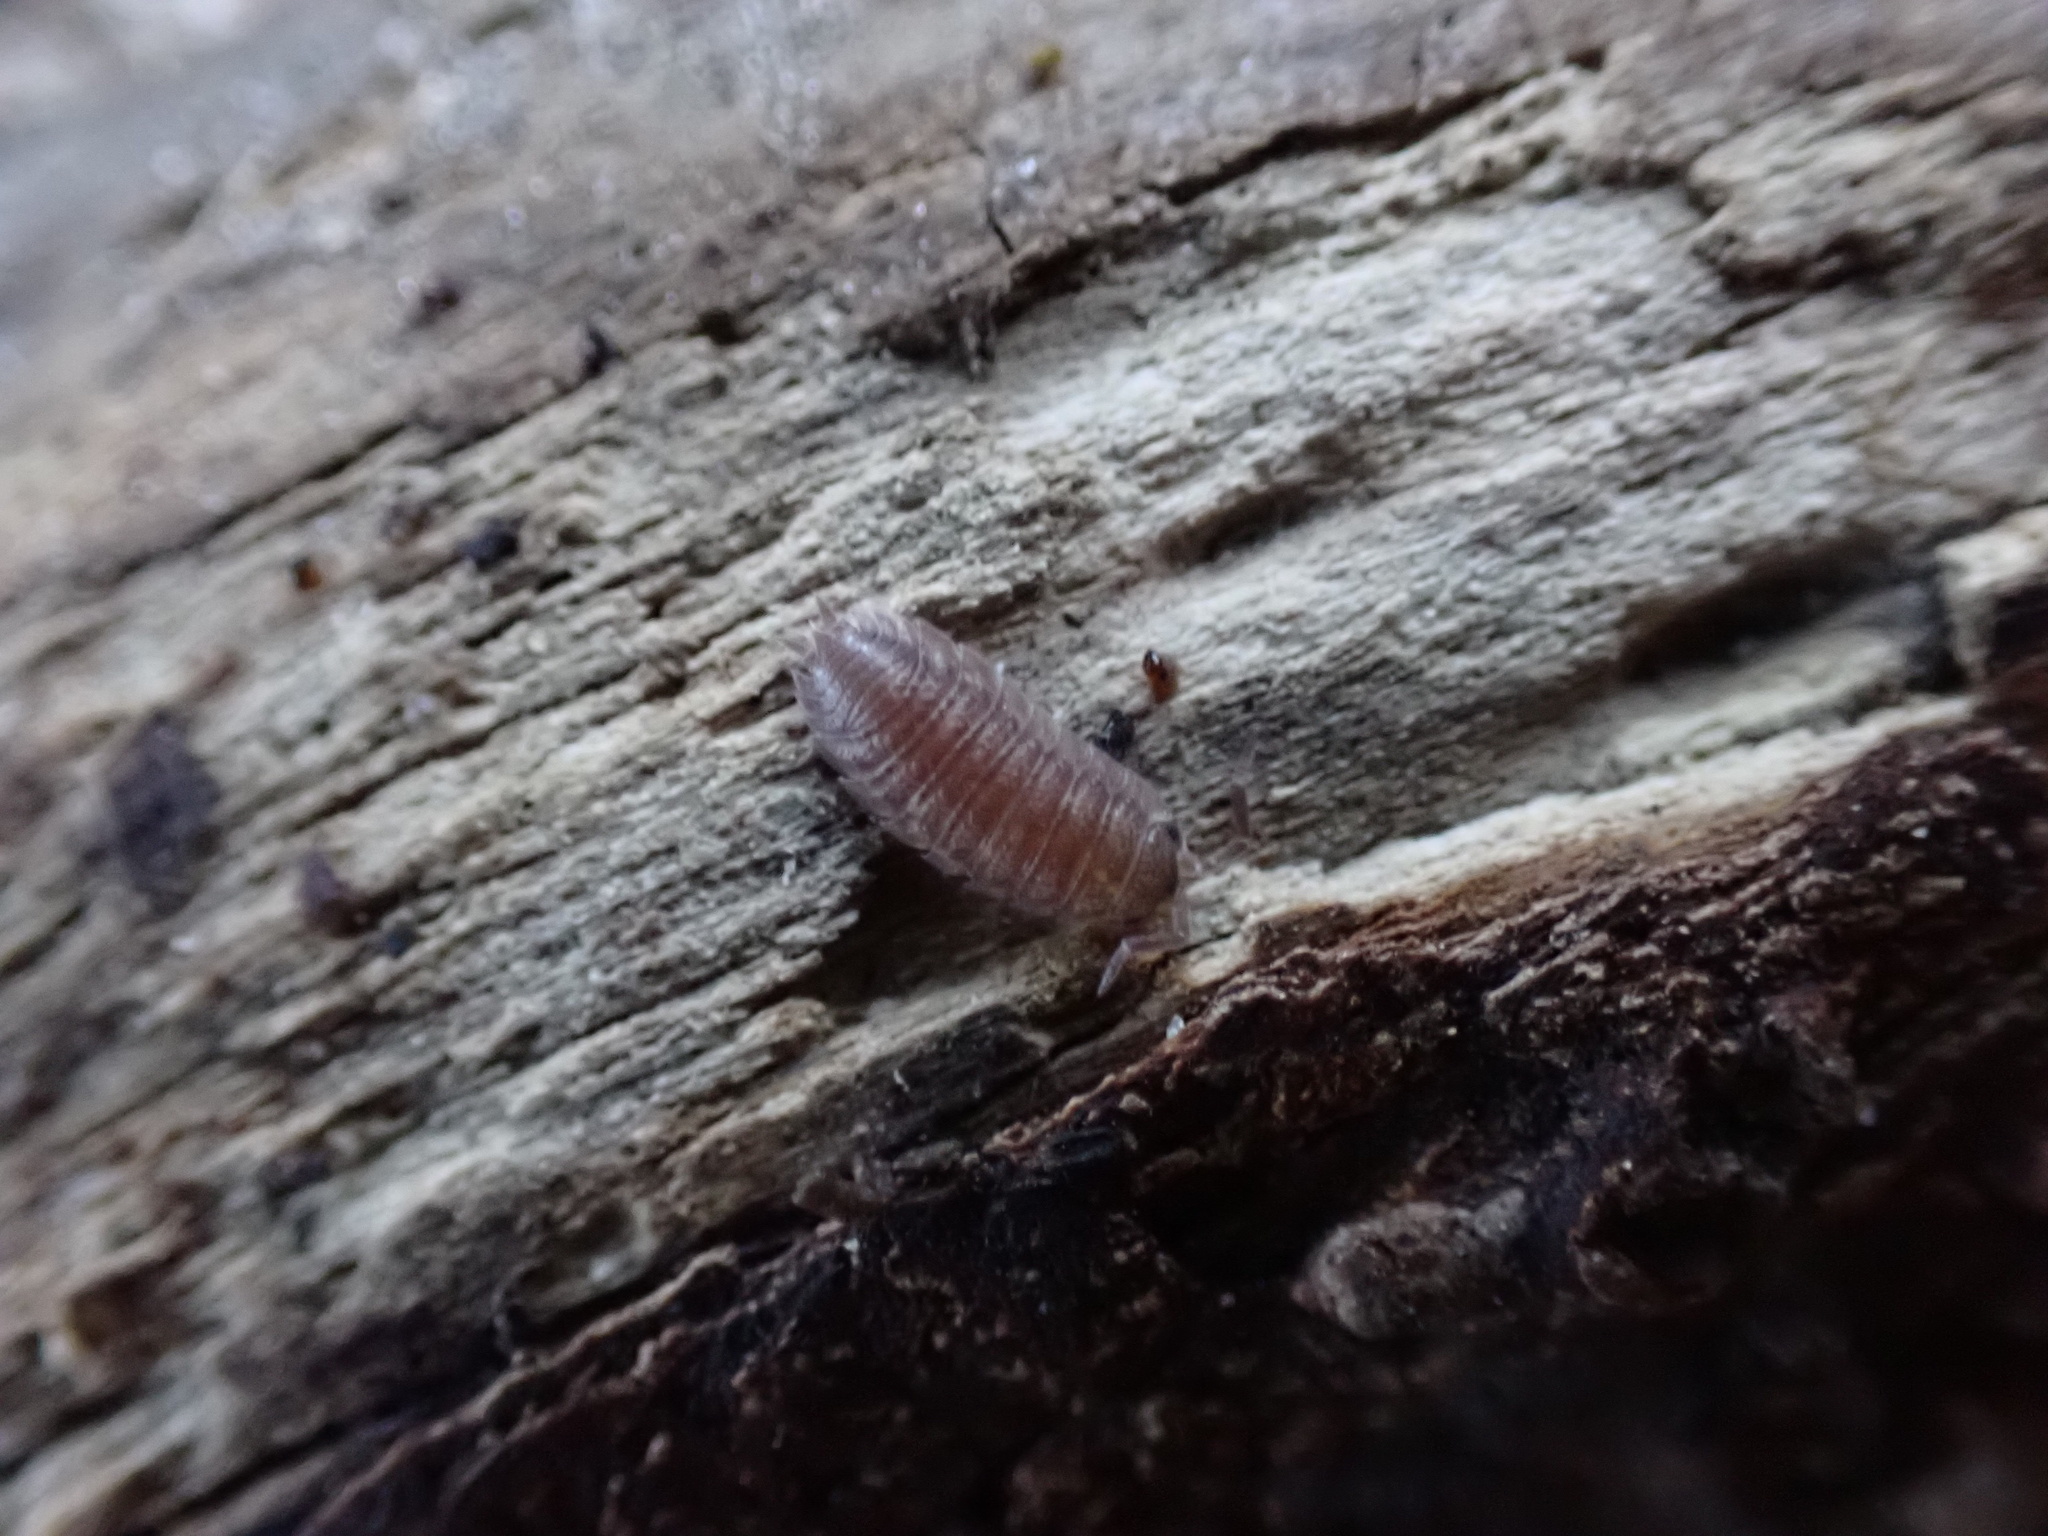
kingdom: Animalia
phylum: Arthropoda
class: Malacostraca
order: Isopoda
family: Porcellionidae
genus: Porcellio
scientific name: Porcellio scaber
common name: Common rough woodlouse
